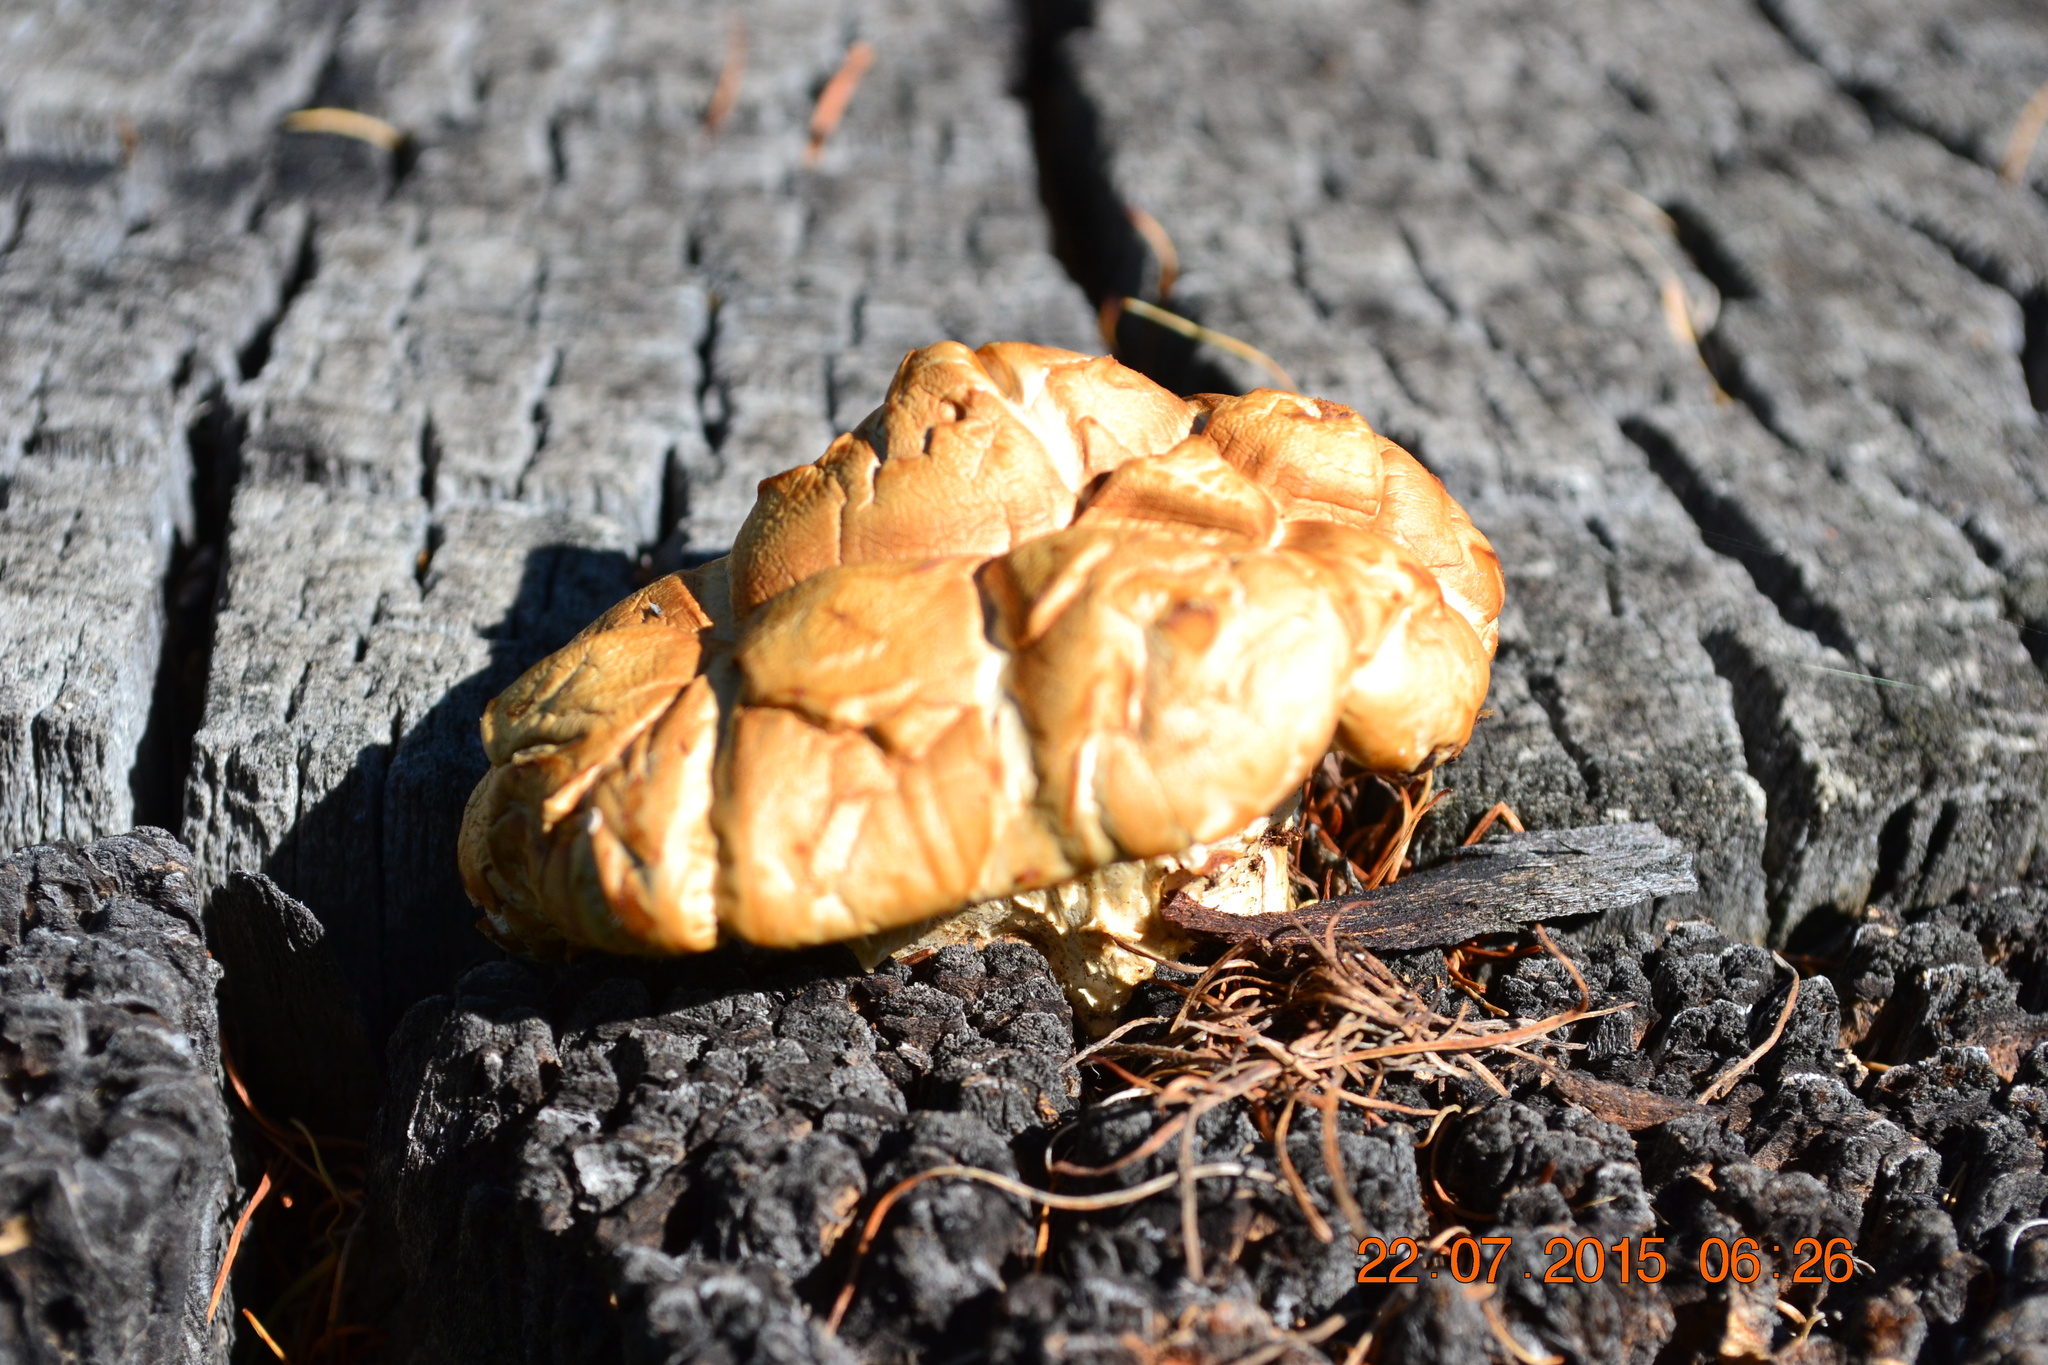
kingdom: Fungi
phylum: Basidiomycota
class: Agaricomycetes
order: Gloeophyllales
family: Gloeophyllaceae
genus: Neolentinus
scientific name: Neolentinus lepideus
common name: Scaly sawgill
